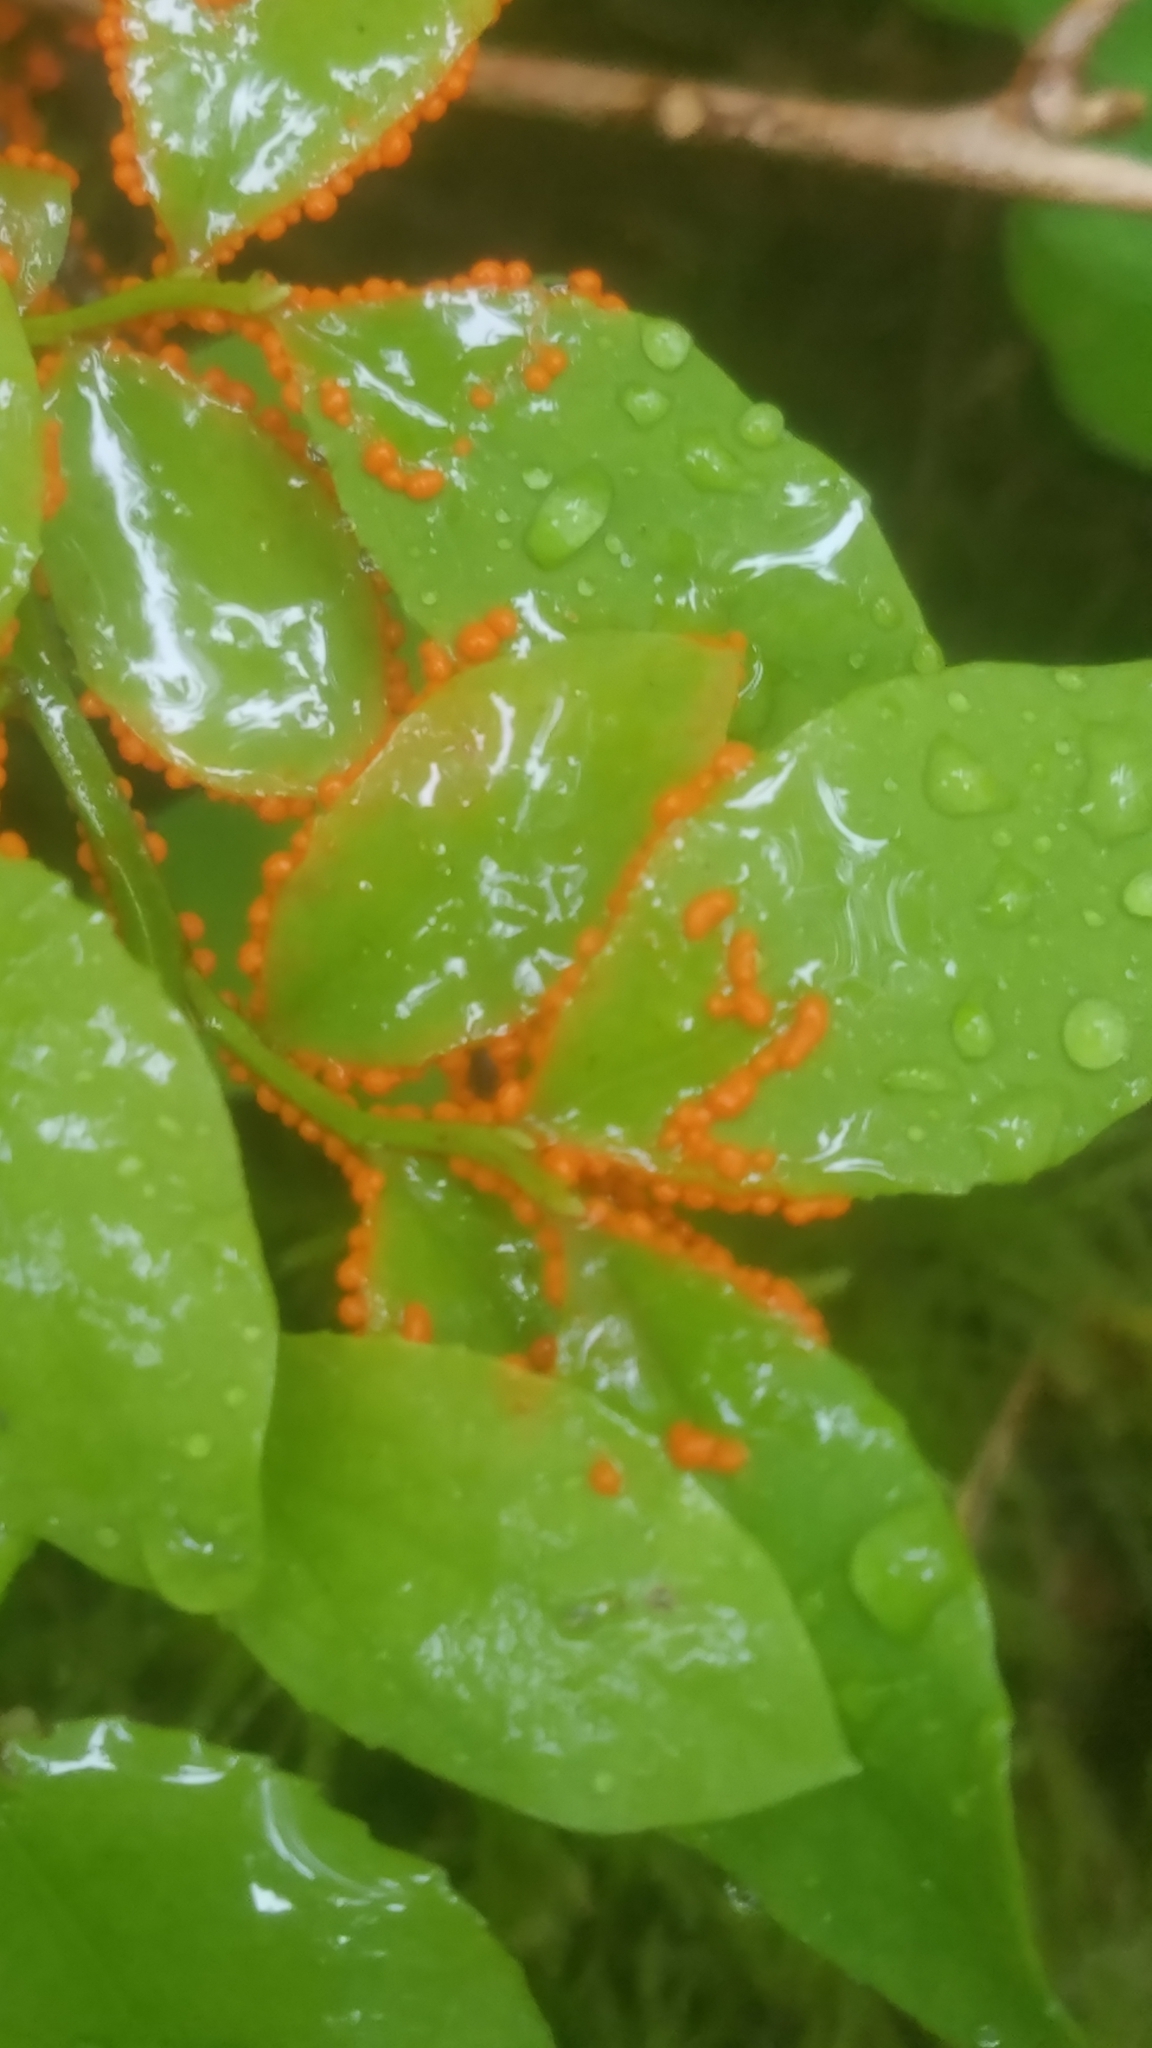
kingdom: Protozoa
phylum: Mycetozoa
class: Myxomycetes
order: Physarales
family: Physaraceae
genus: Leocarpus
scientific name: Leocarpus fragilis
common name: Insect-egg slime
